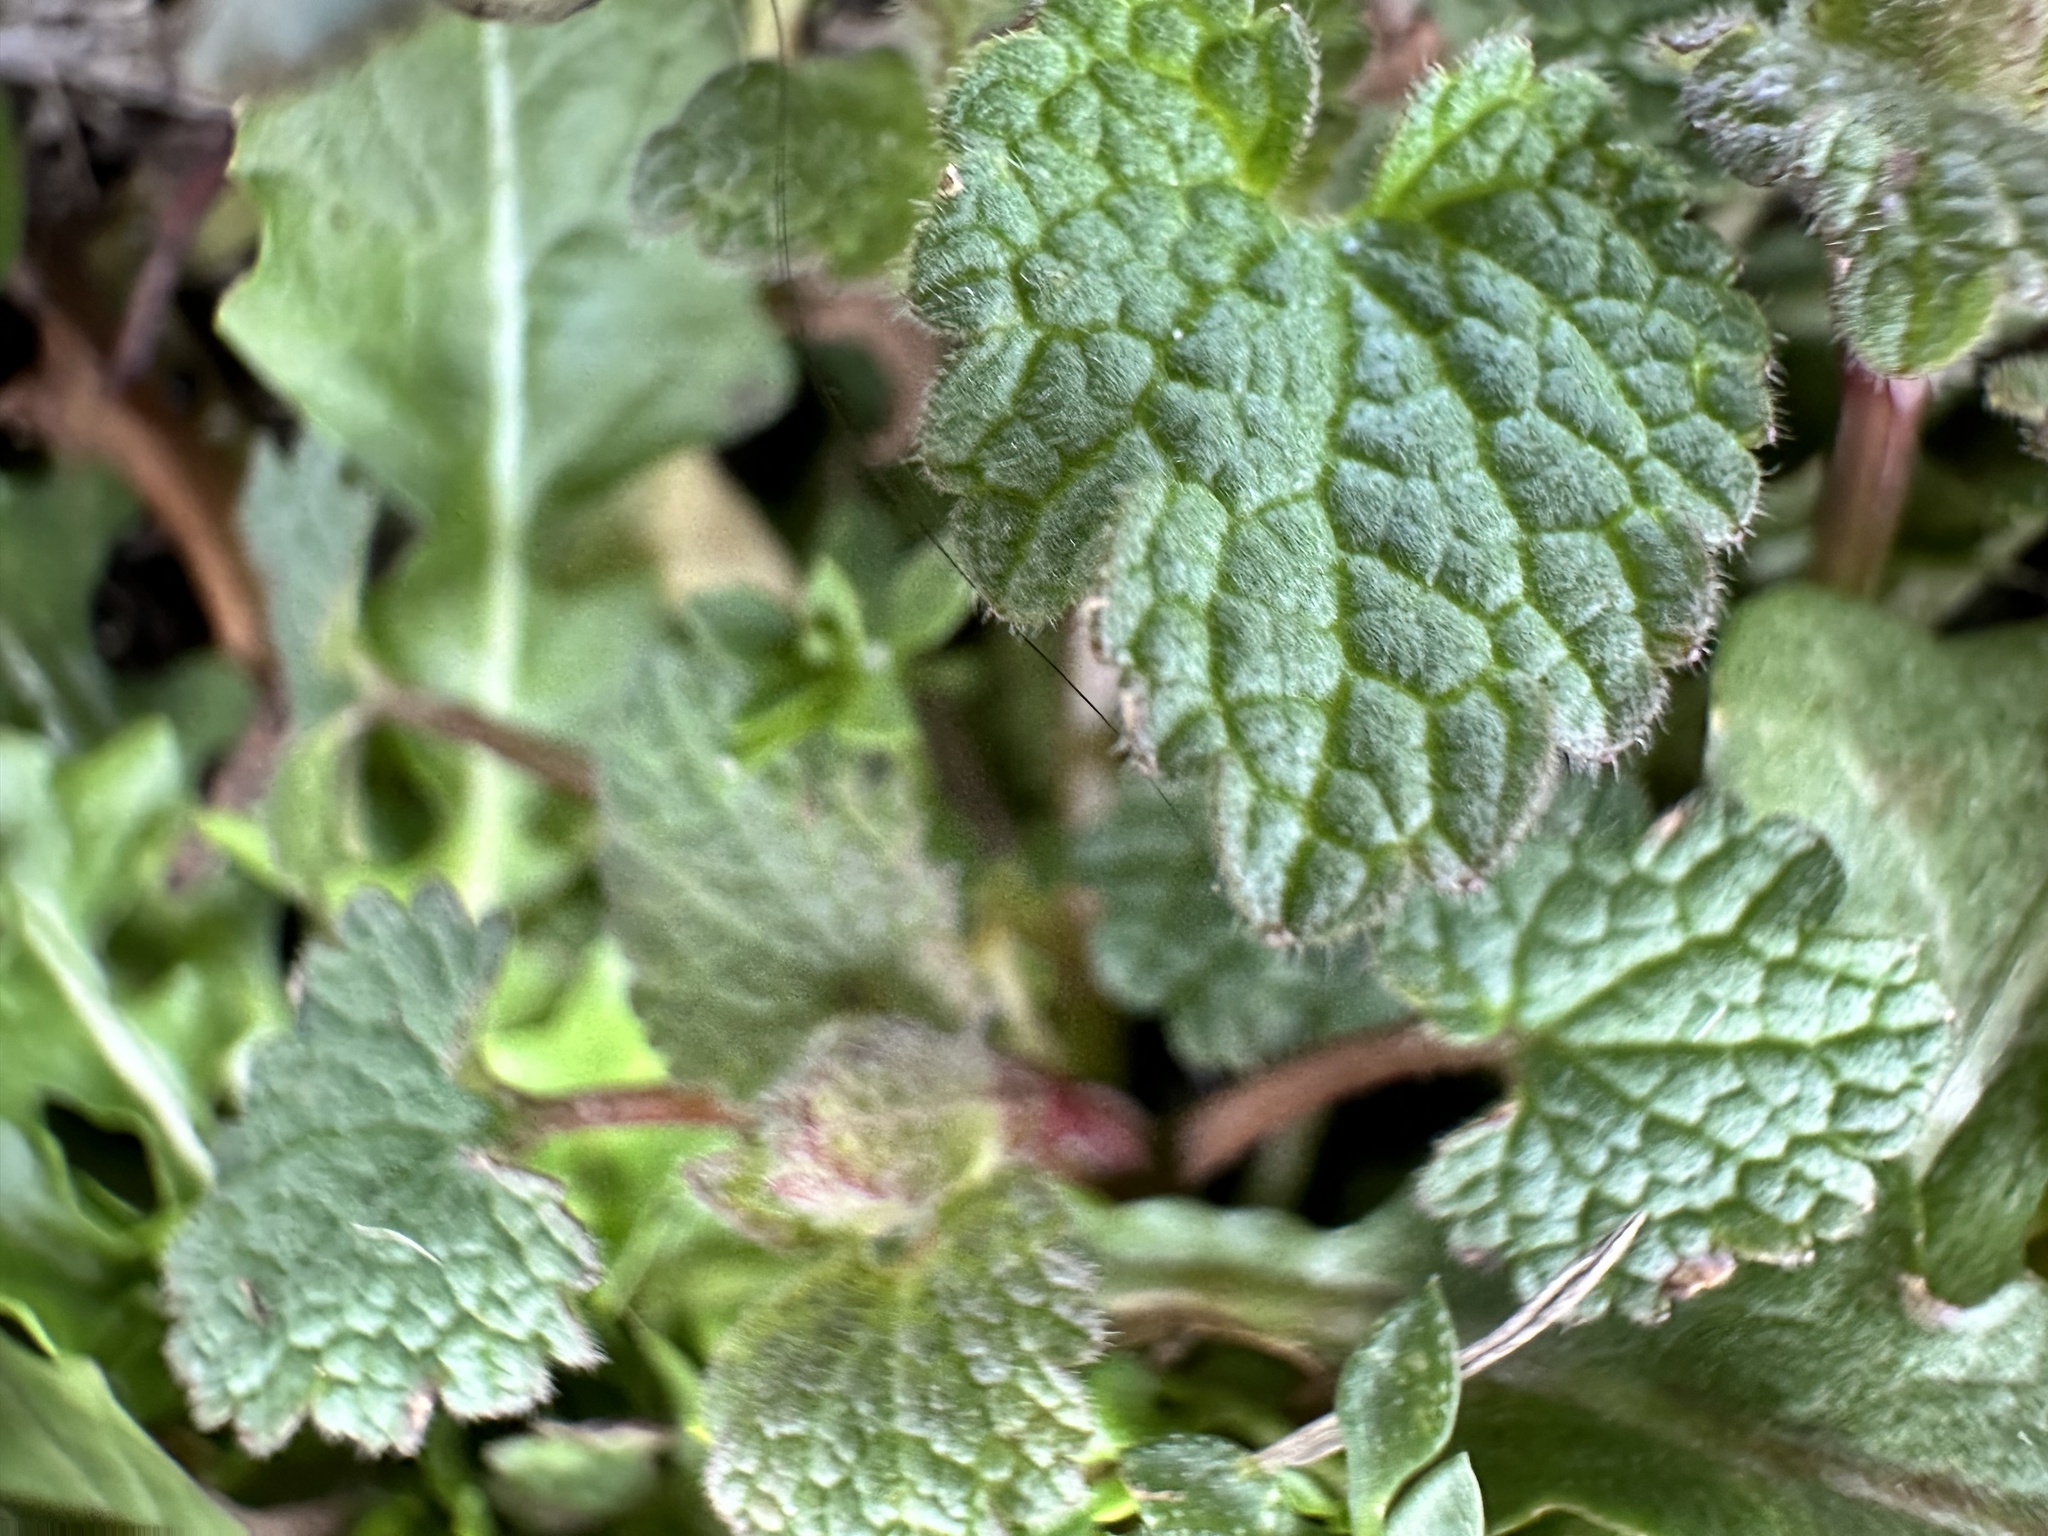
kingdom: Plantae
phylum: Tracheophyta
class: Magnoliopsida
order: Lamiales
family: Lamiaceae
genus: Lamium
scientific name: Lamium purpureum
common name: Red dead-nettle
